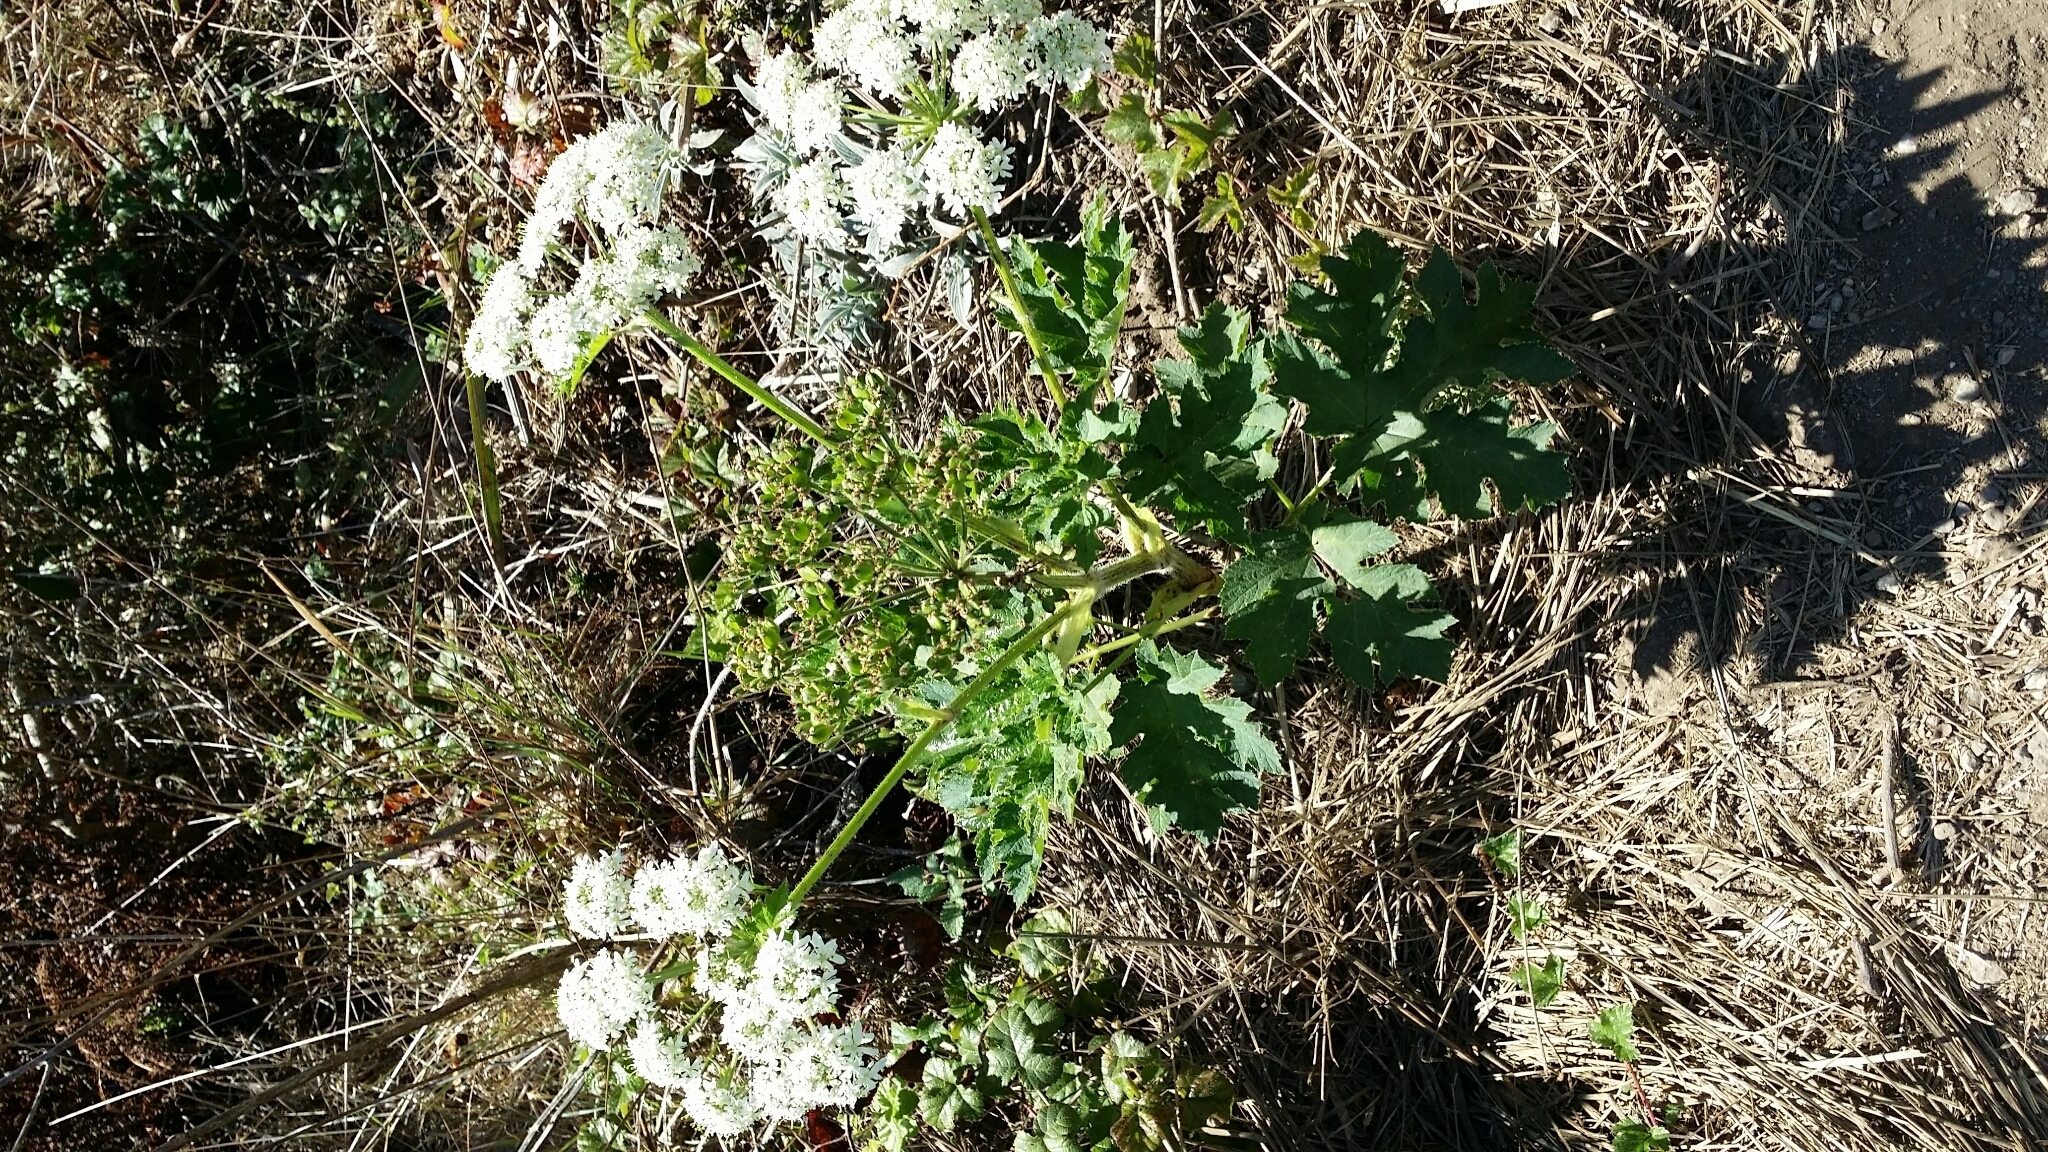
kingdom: Plantae
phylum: Tracheophyta
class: Magnoliopsida
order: Apiales
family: Apiaceae
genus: Heracleum
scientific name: Heracleum maximum
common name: American cow parsnip
